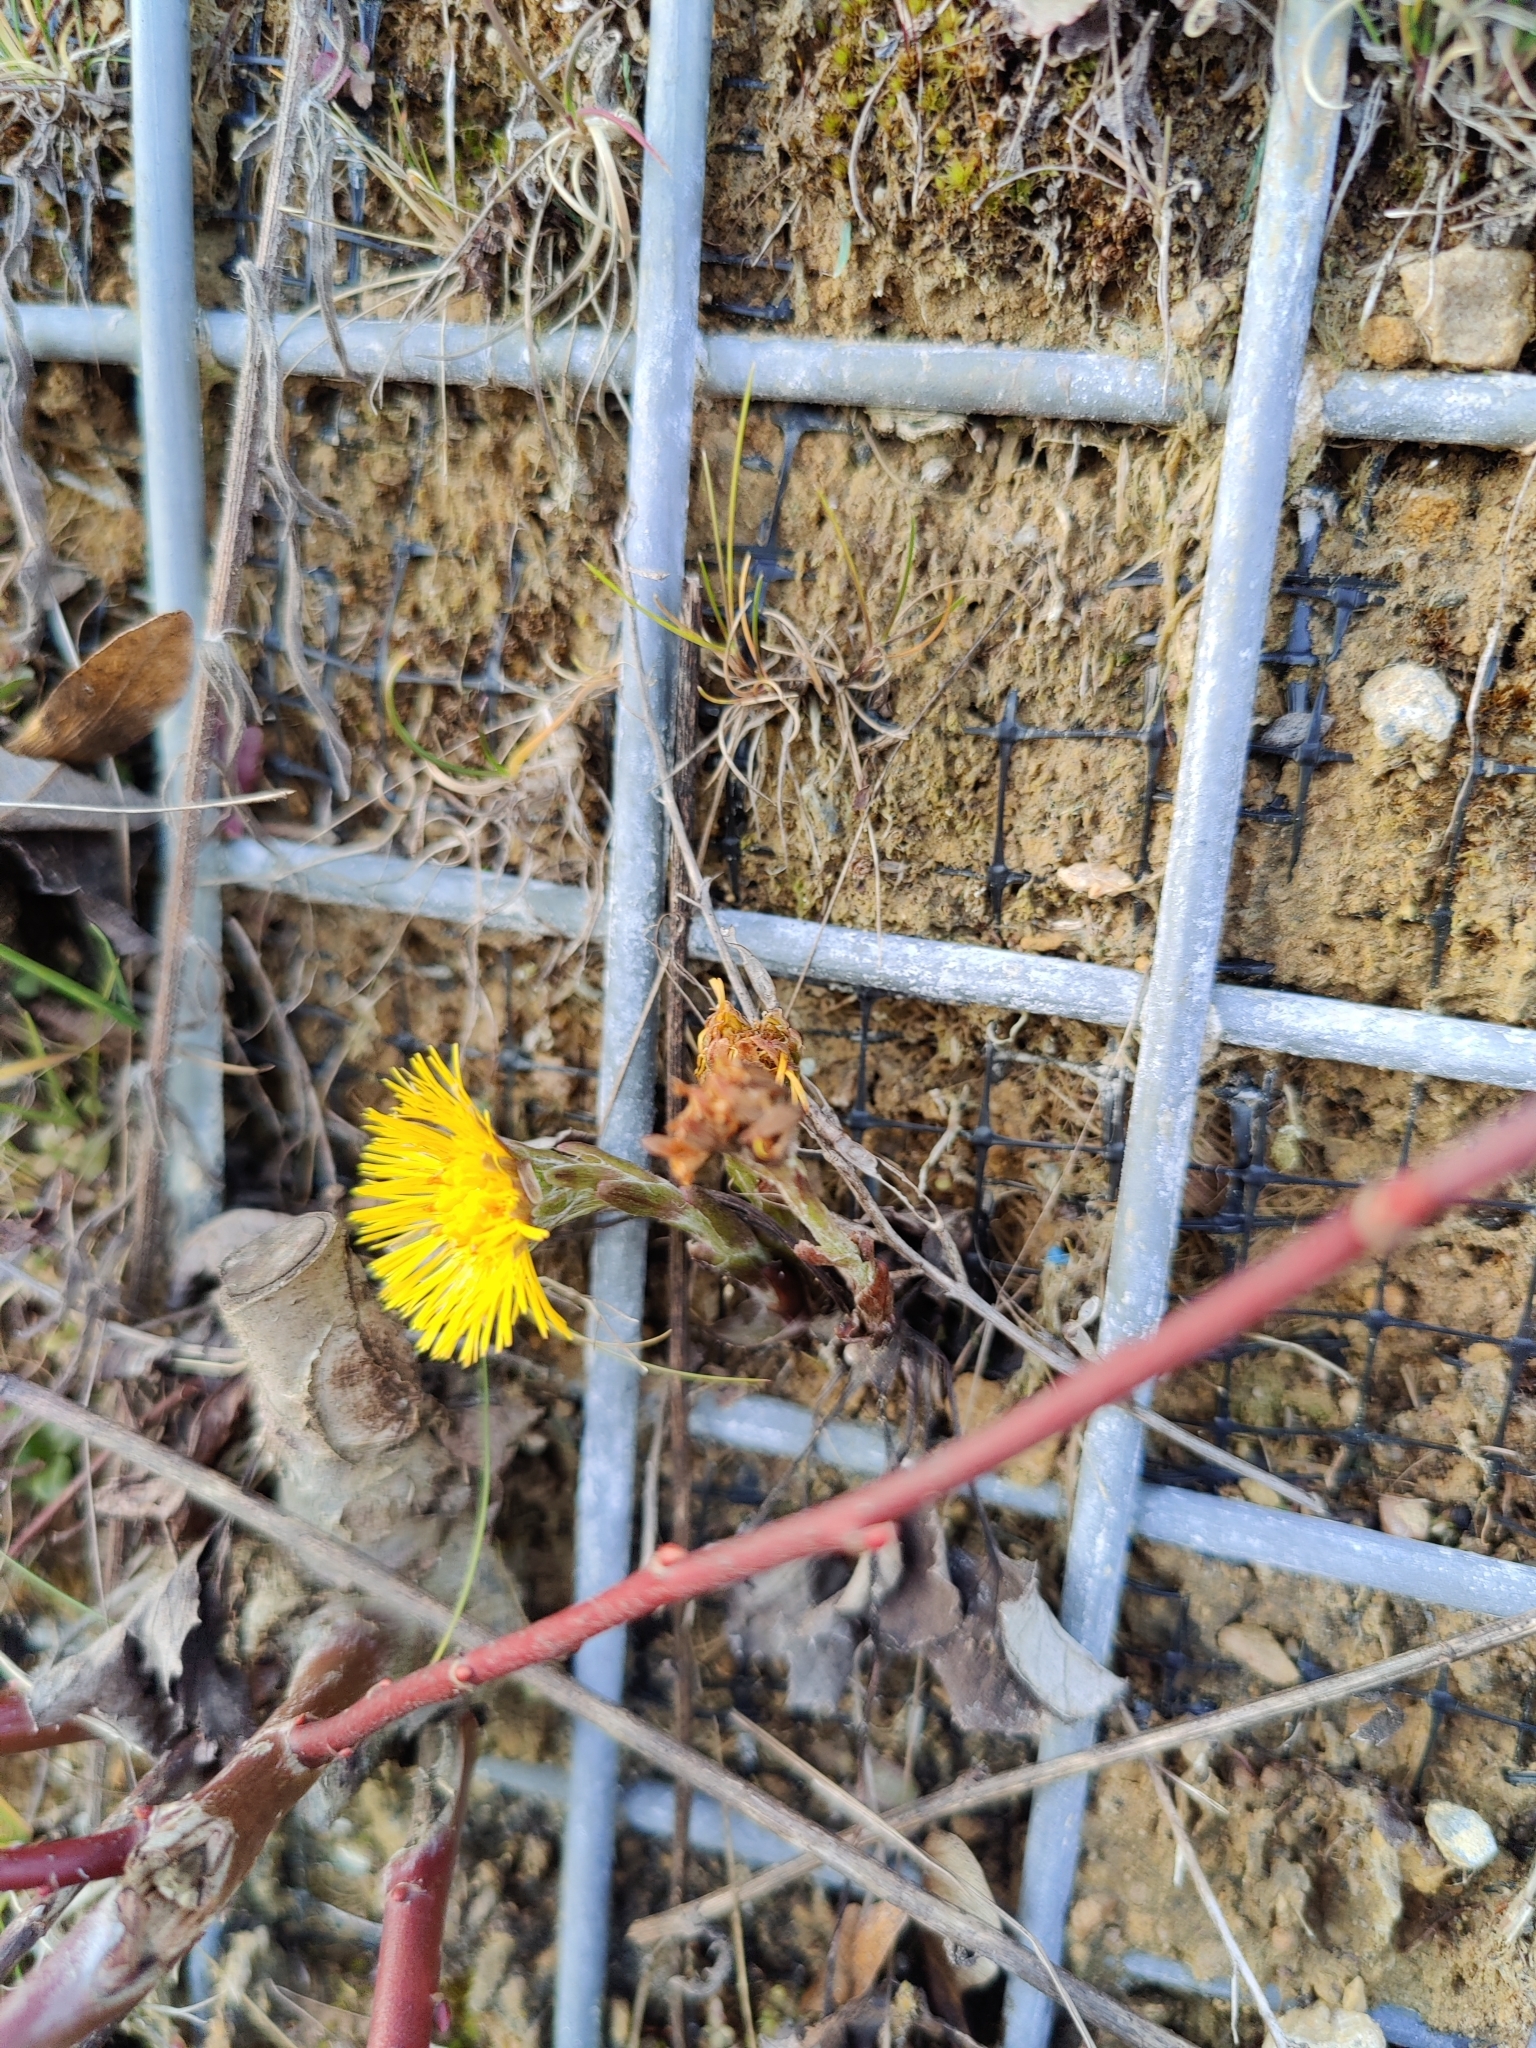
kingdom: Plantae
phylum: Tracheophyta
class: Magnoliopsida
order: Asterales
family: Asteraceae
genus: Tussilago
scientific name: Tussilago farfara
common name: Coltsfoot
